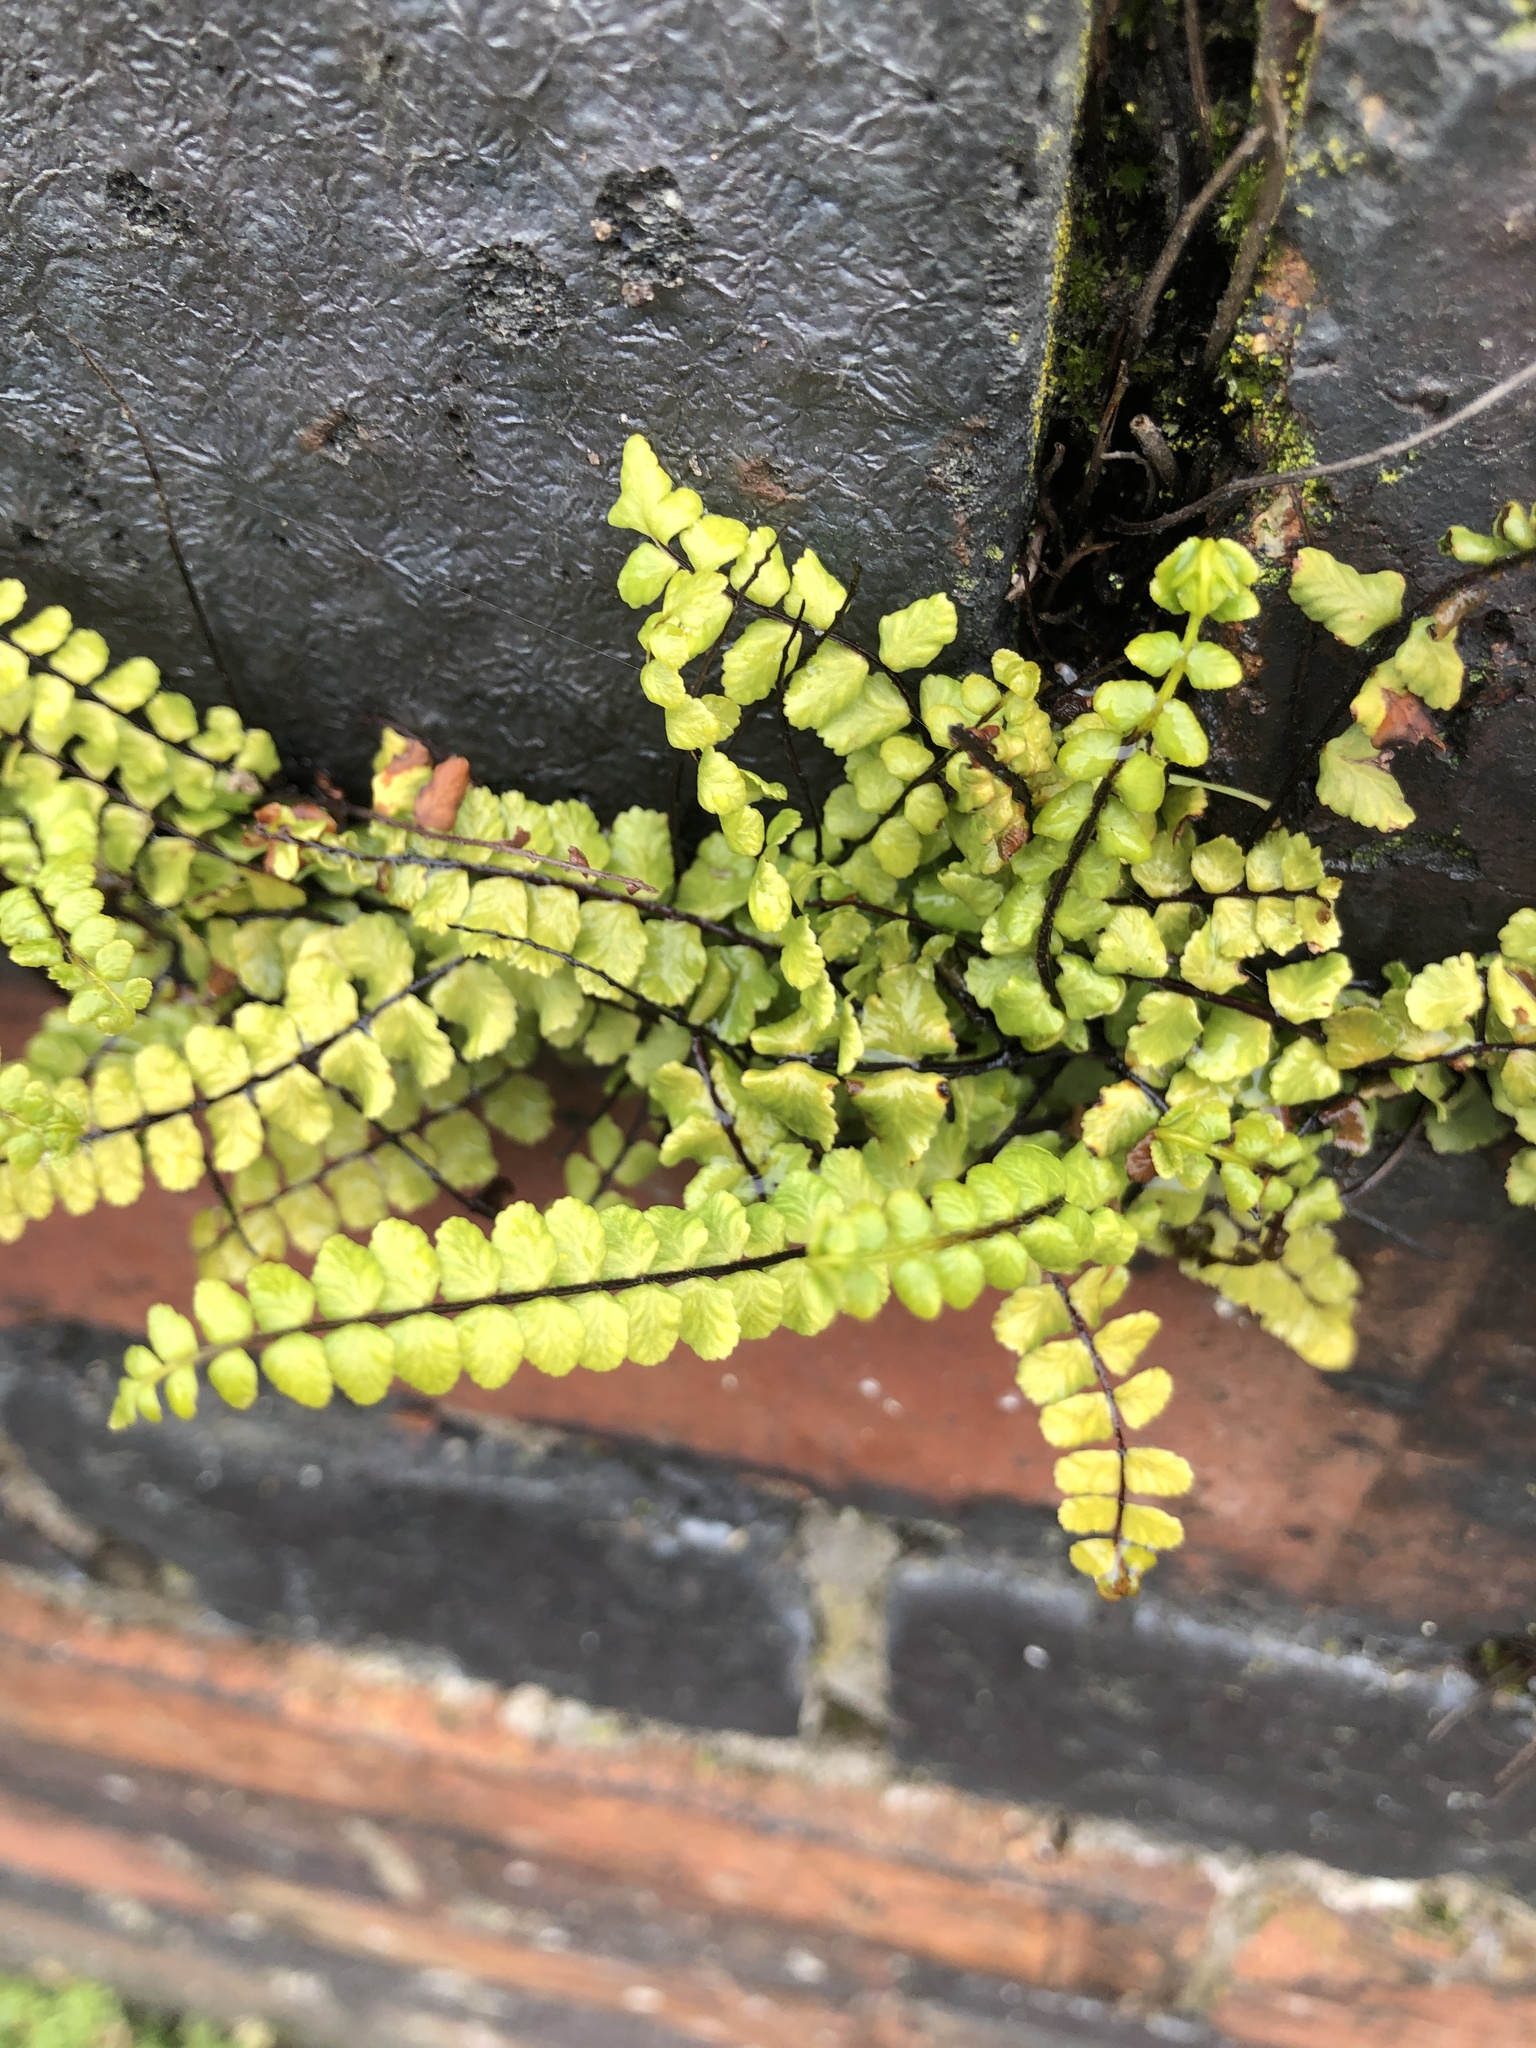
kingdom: Plantae
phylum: Tracheophyta
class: Polypodiopsida
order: Polypodiales
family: Aspleniaceae
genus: Asplenium
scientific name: Asplenium trichomanes
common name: Maidenhair spleenwort
